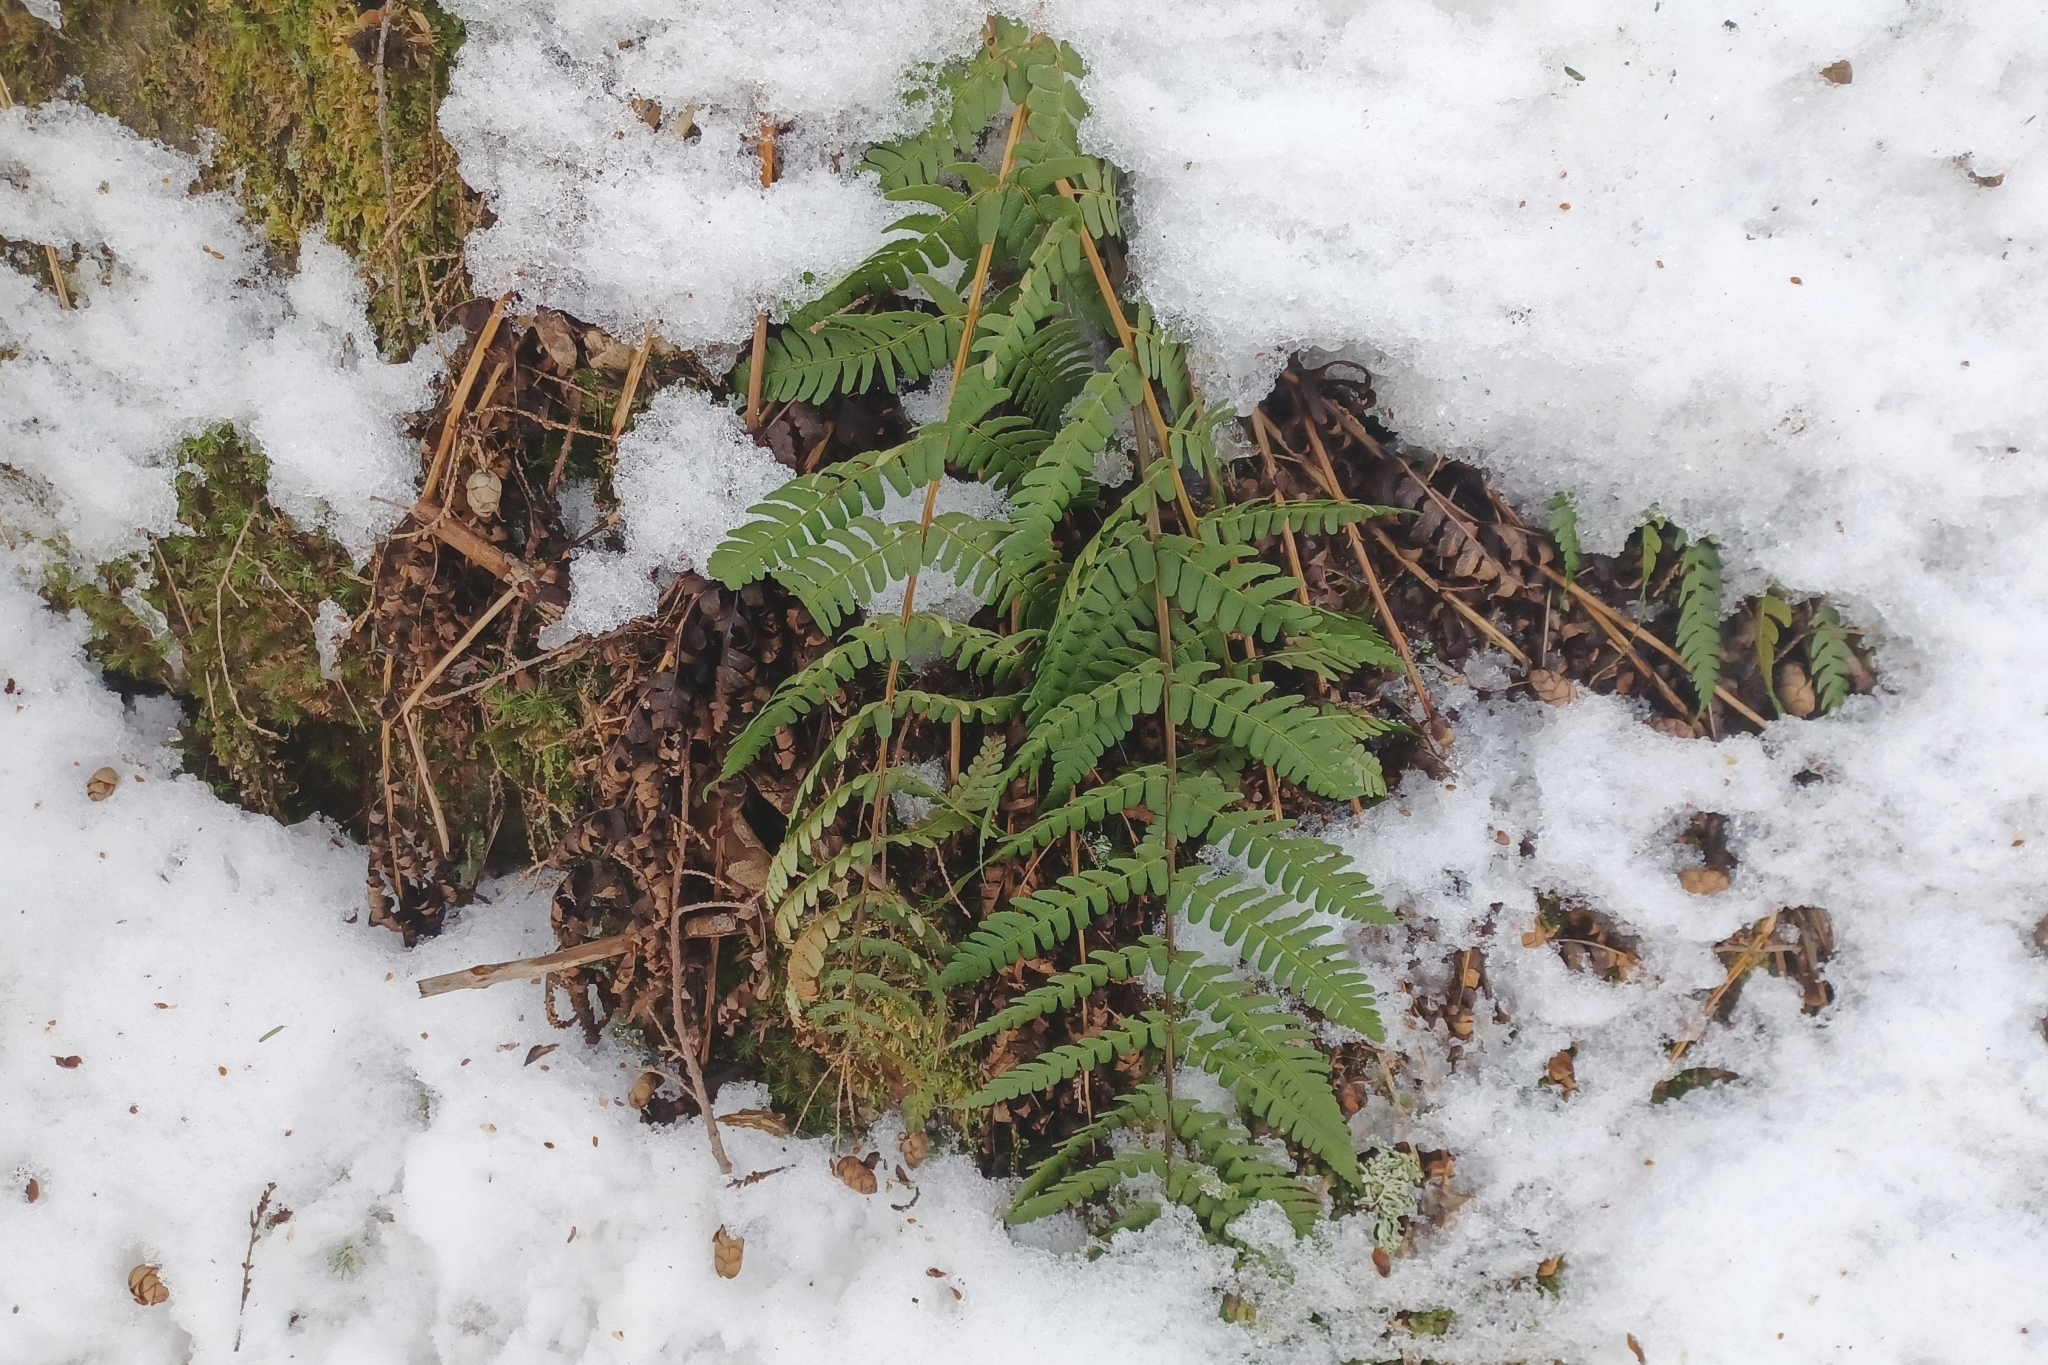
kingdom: Plantae
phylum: Tracheophyta
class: Polypodiopsida
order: Polypodiales
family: Dryopteridaceae
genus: Dryopteris
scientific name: Dryopteris marginalis
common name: Marginal wood fern
